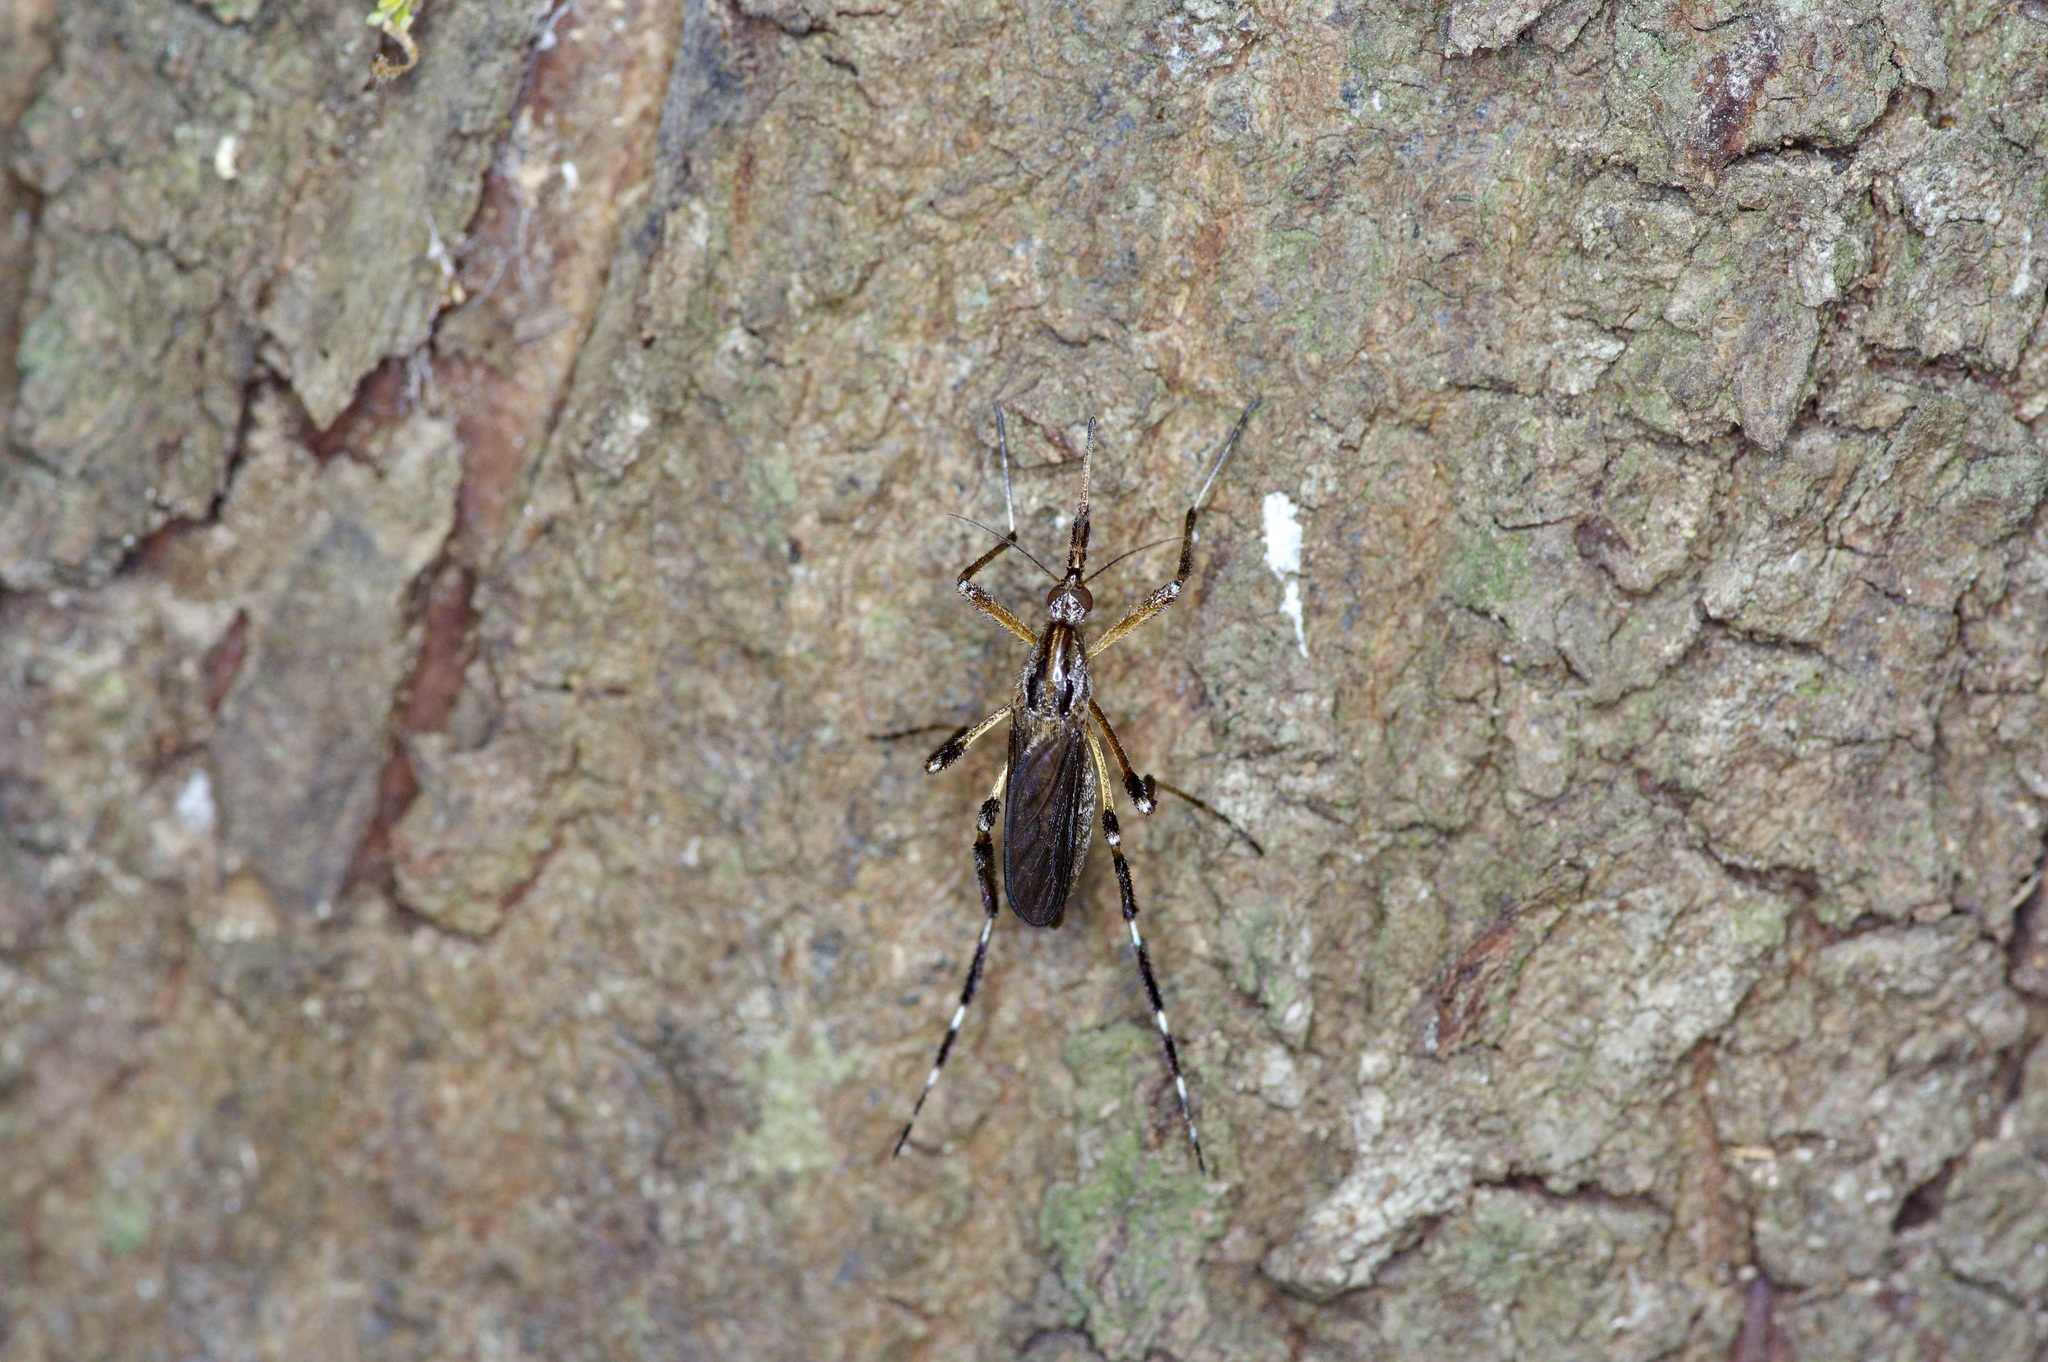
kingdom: Animalia
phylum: Arthropoda
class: Insecta
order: Diptera
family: Culicidae
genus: Psorophora
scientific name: Psorophora ciliata
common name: Gallinipper
